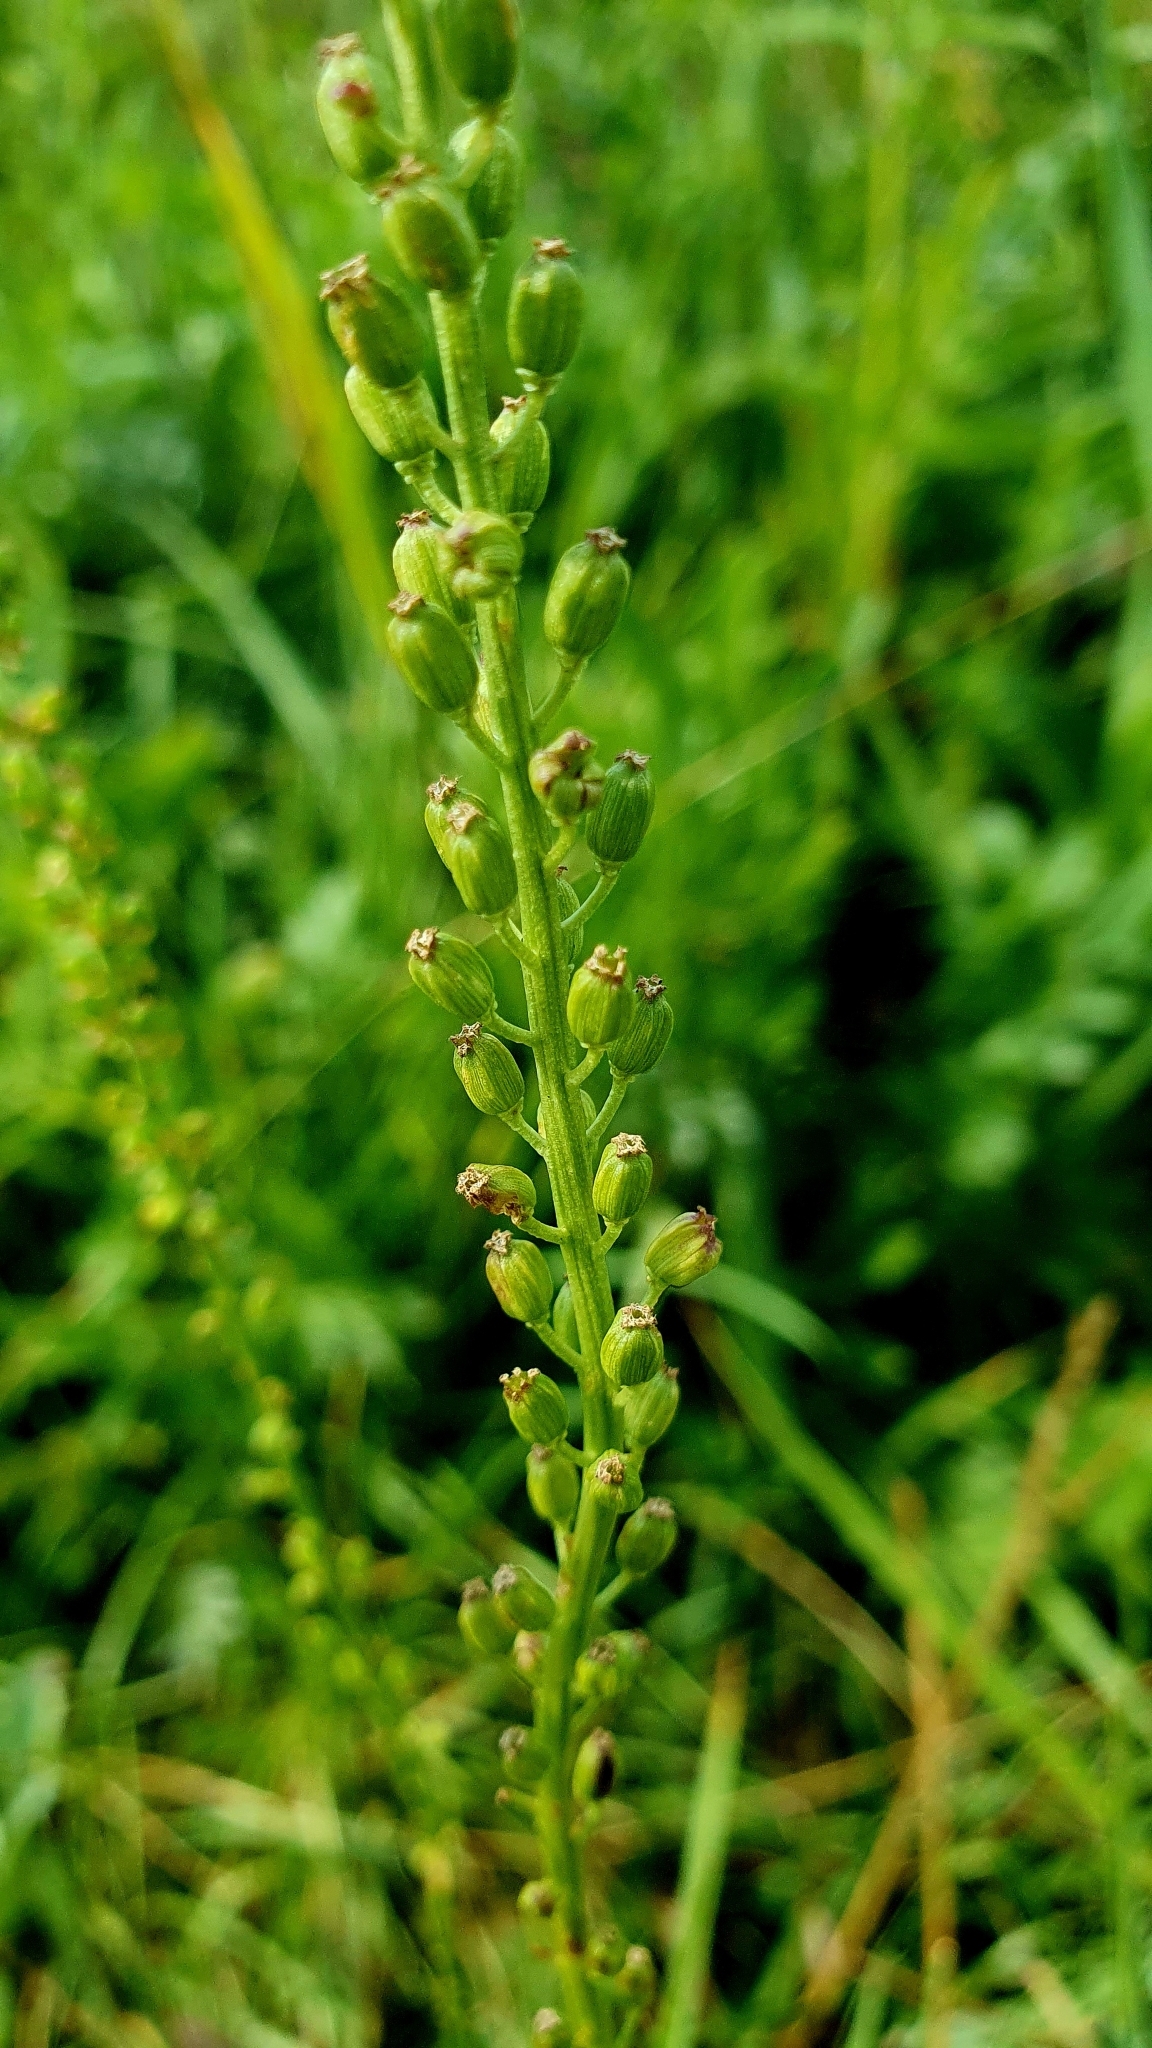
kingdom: Plantae
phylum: Tracheophyta
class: Liliopsida
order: Alismatales
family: Juncaginaceae
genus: Triglochin
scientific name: Triglochin maritima
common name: Sea arrowgrass
